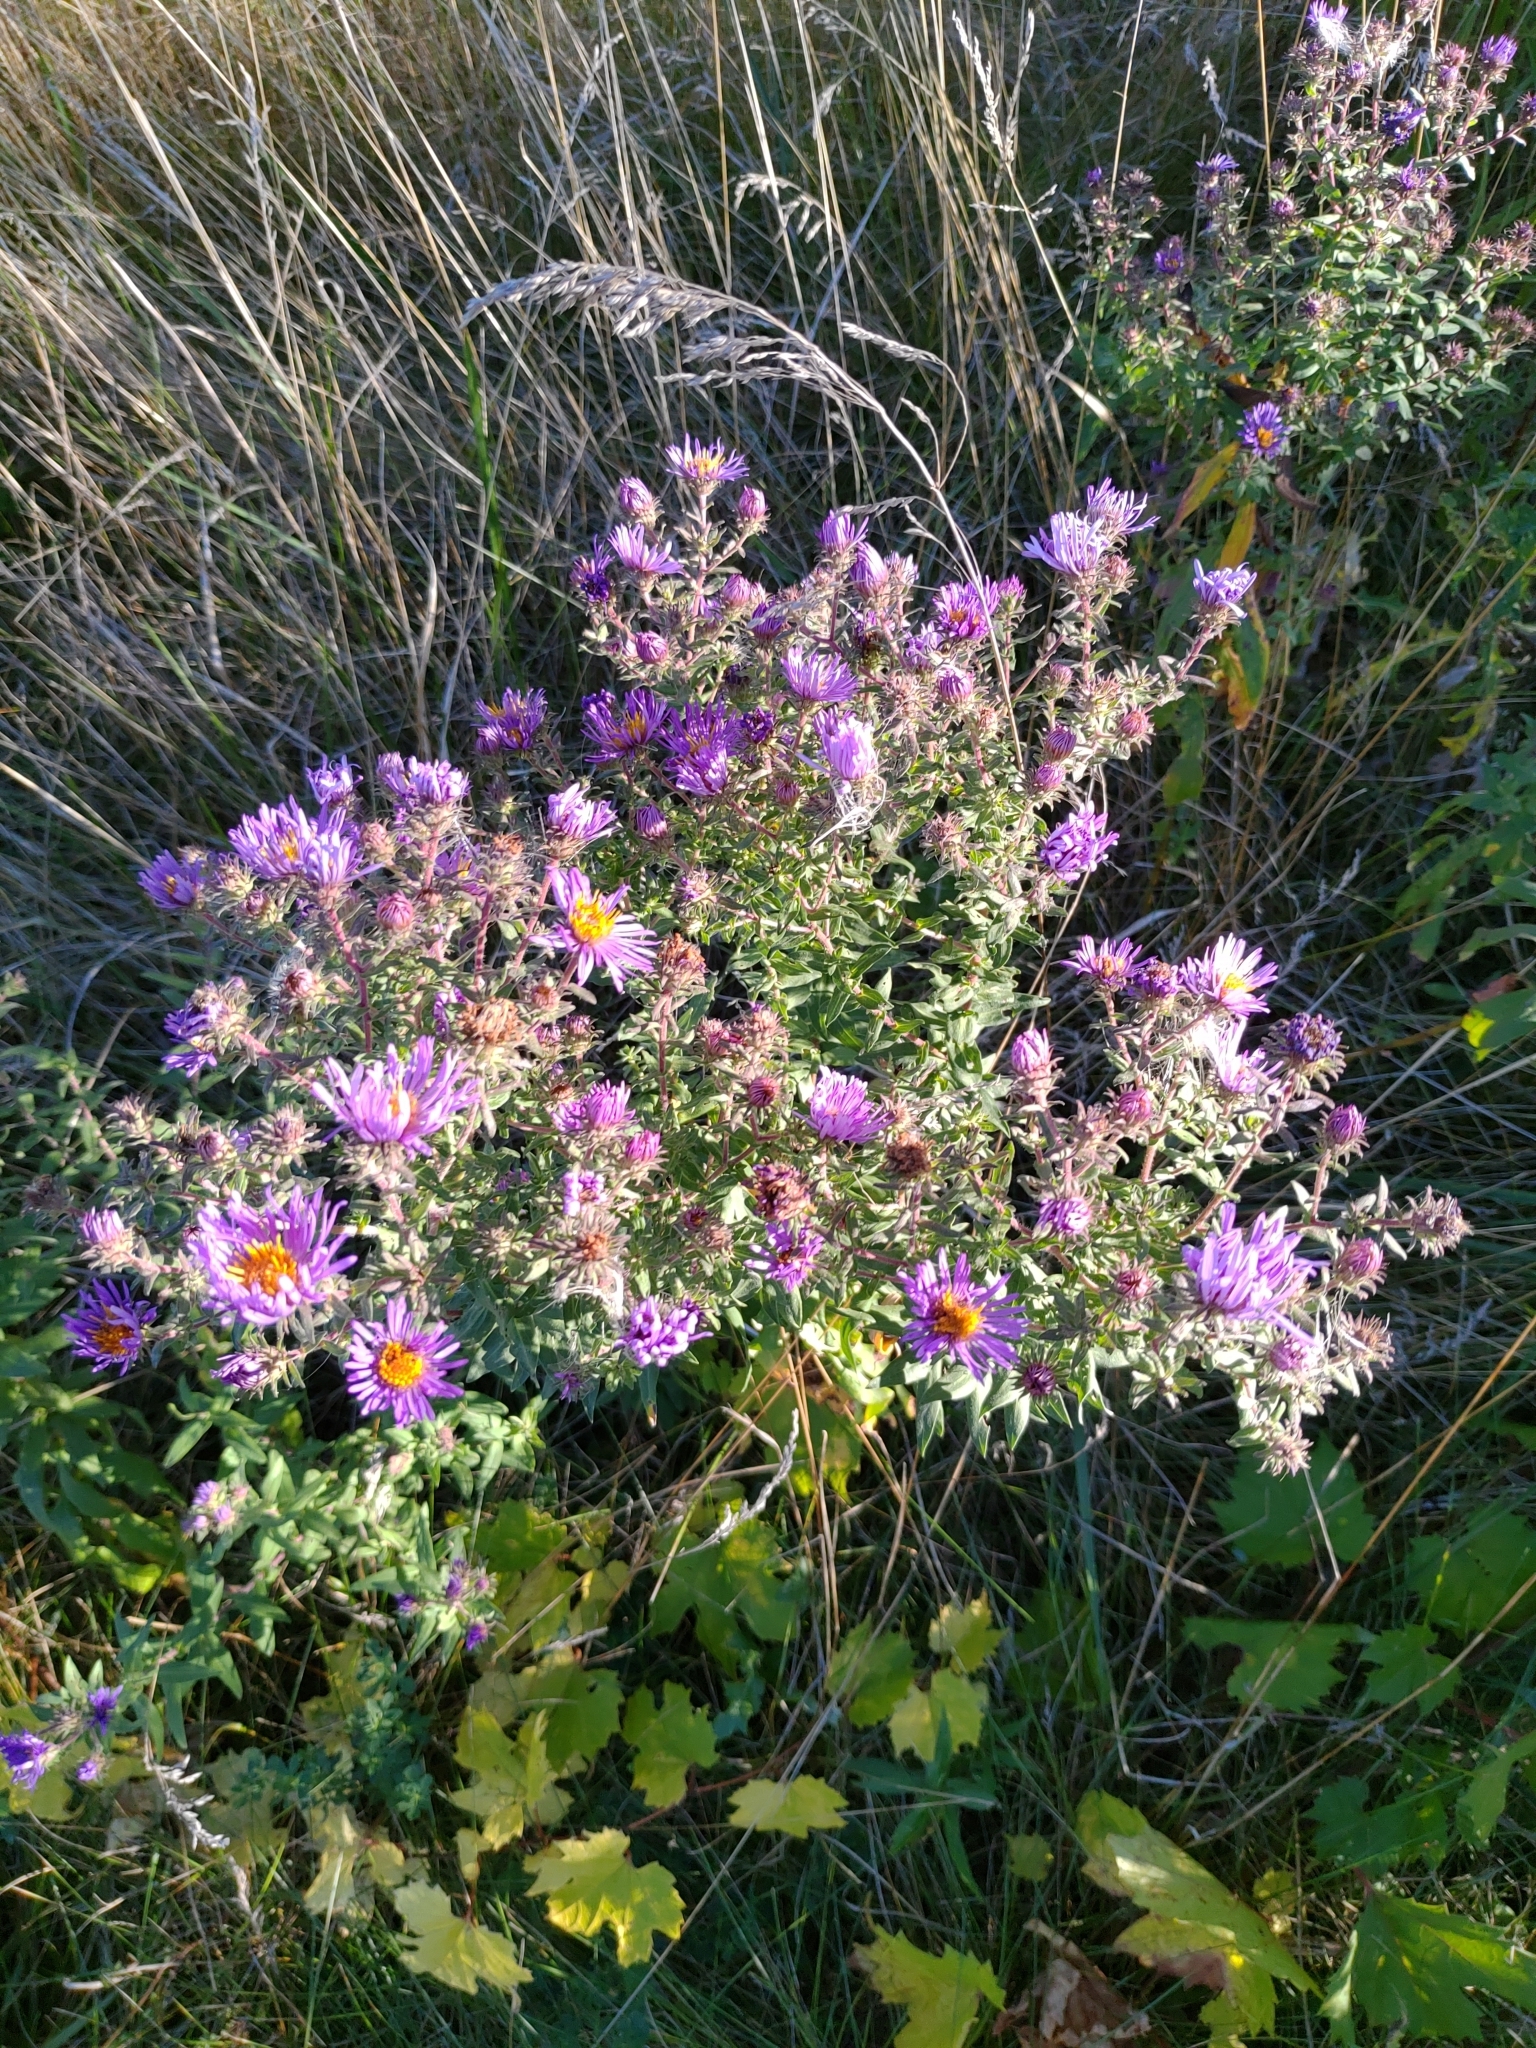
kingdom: Plantae
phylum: Tracheophyta
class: Magnoliopsida
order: Asterales
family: Asteraceae
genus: Symphyotrichum
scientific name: Symphyotrichum novae-angliae
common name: Michaelmas daisy
